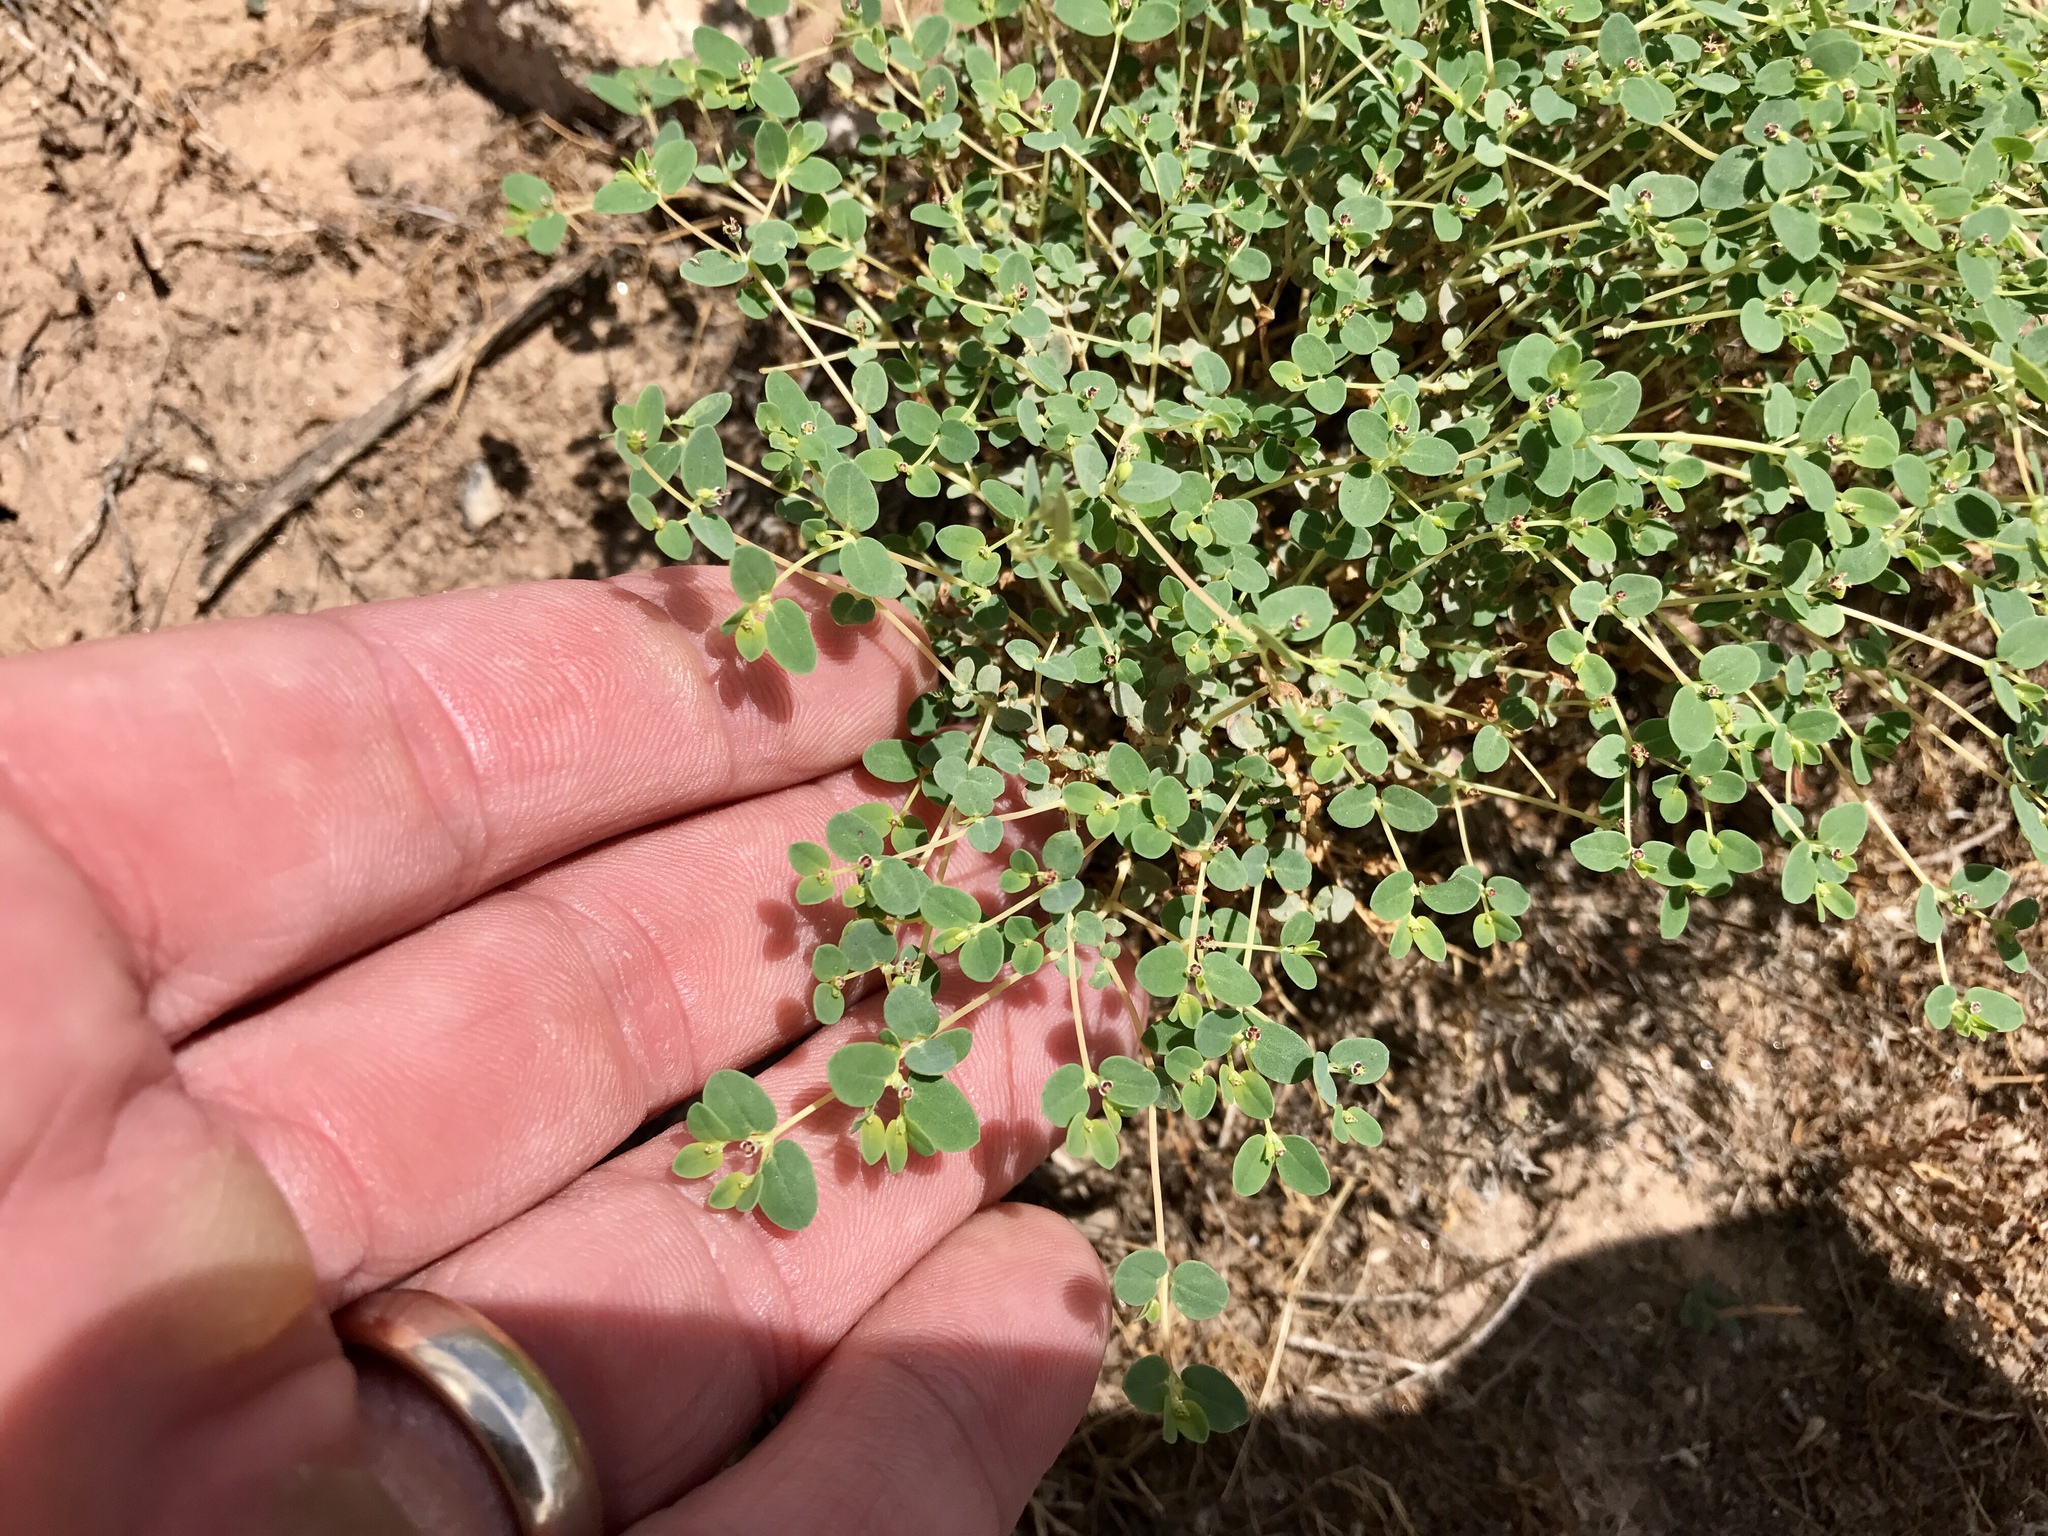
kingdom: Plantae
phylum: Tracheophyta
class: Magnoliopsida
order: Malpighiales
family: Euphorbiaceae
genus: Euphorbia
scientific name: Euphorbia polycarpa
